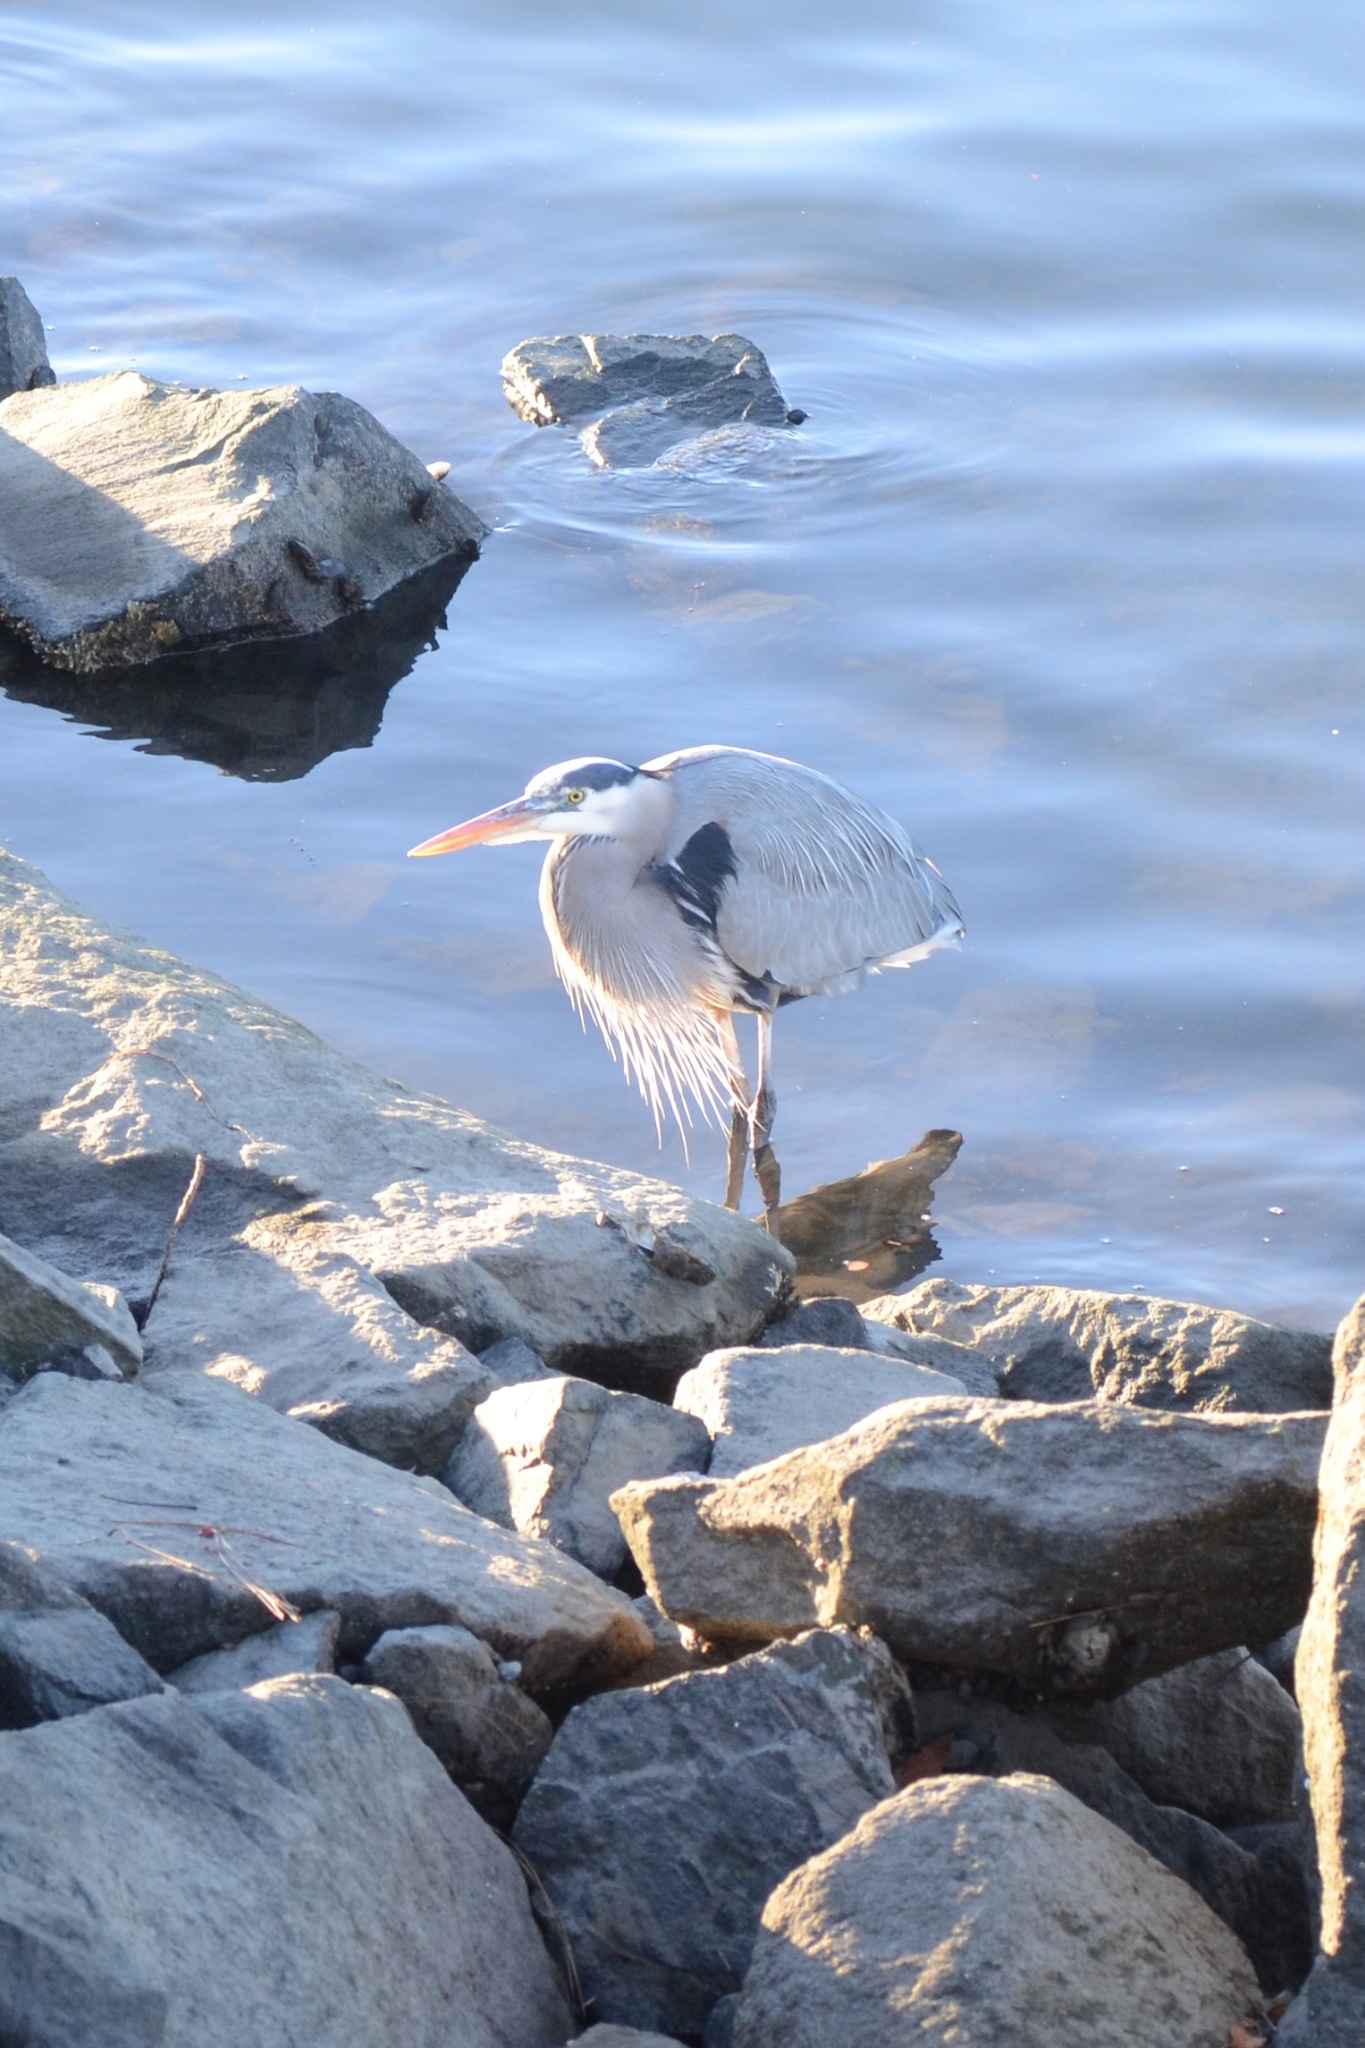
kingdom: Animalia
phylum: Chordata
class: Aves
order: Pelecaniformes
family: Ardeidae
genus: Ardea
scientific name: Ardea herodias
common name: Great blue heron
